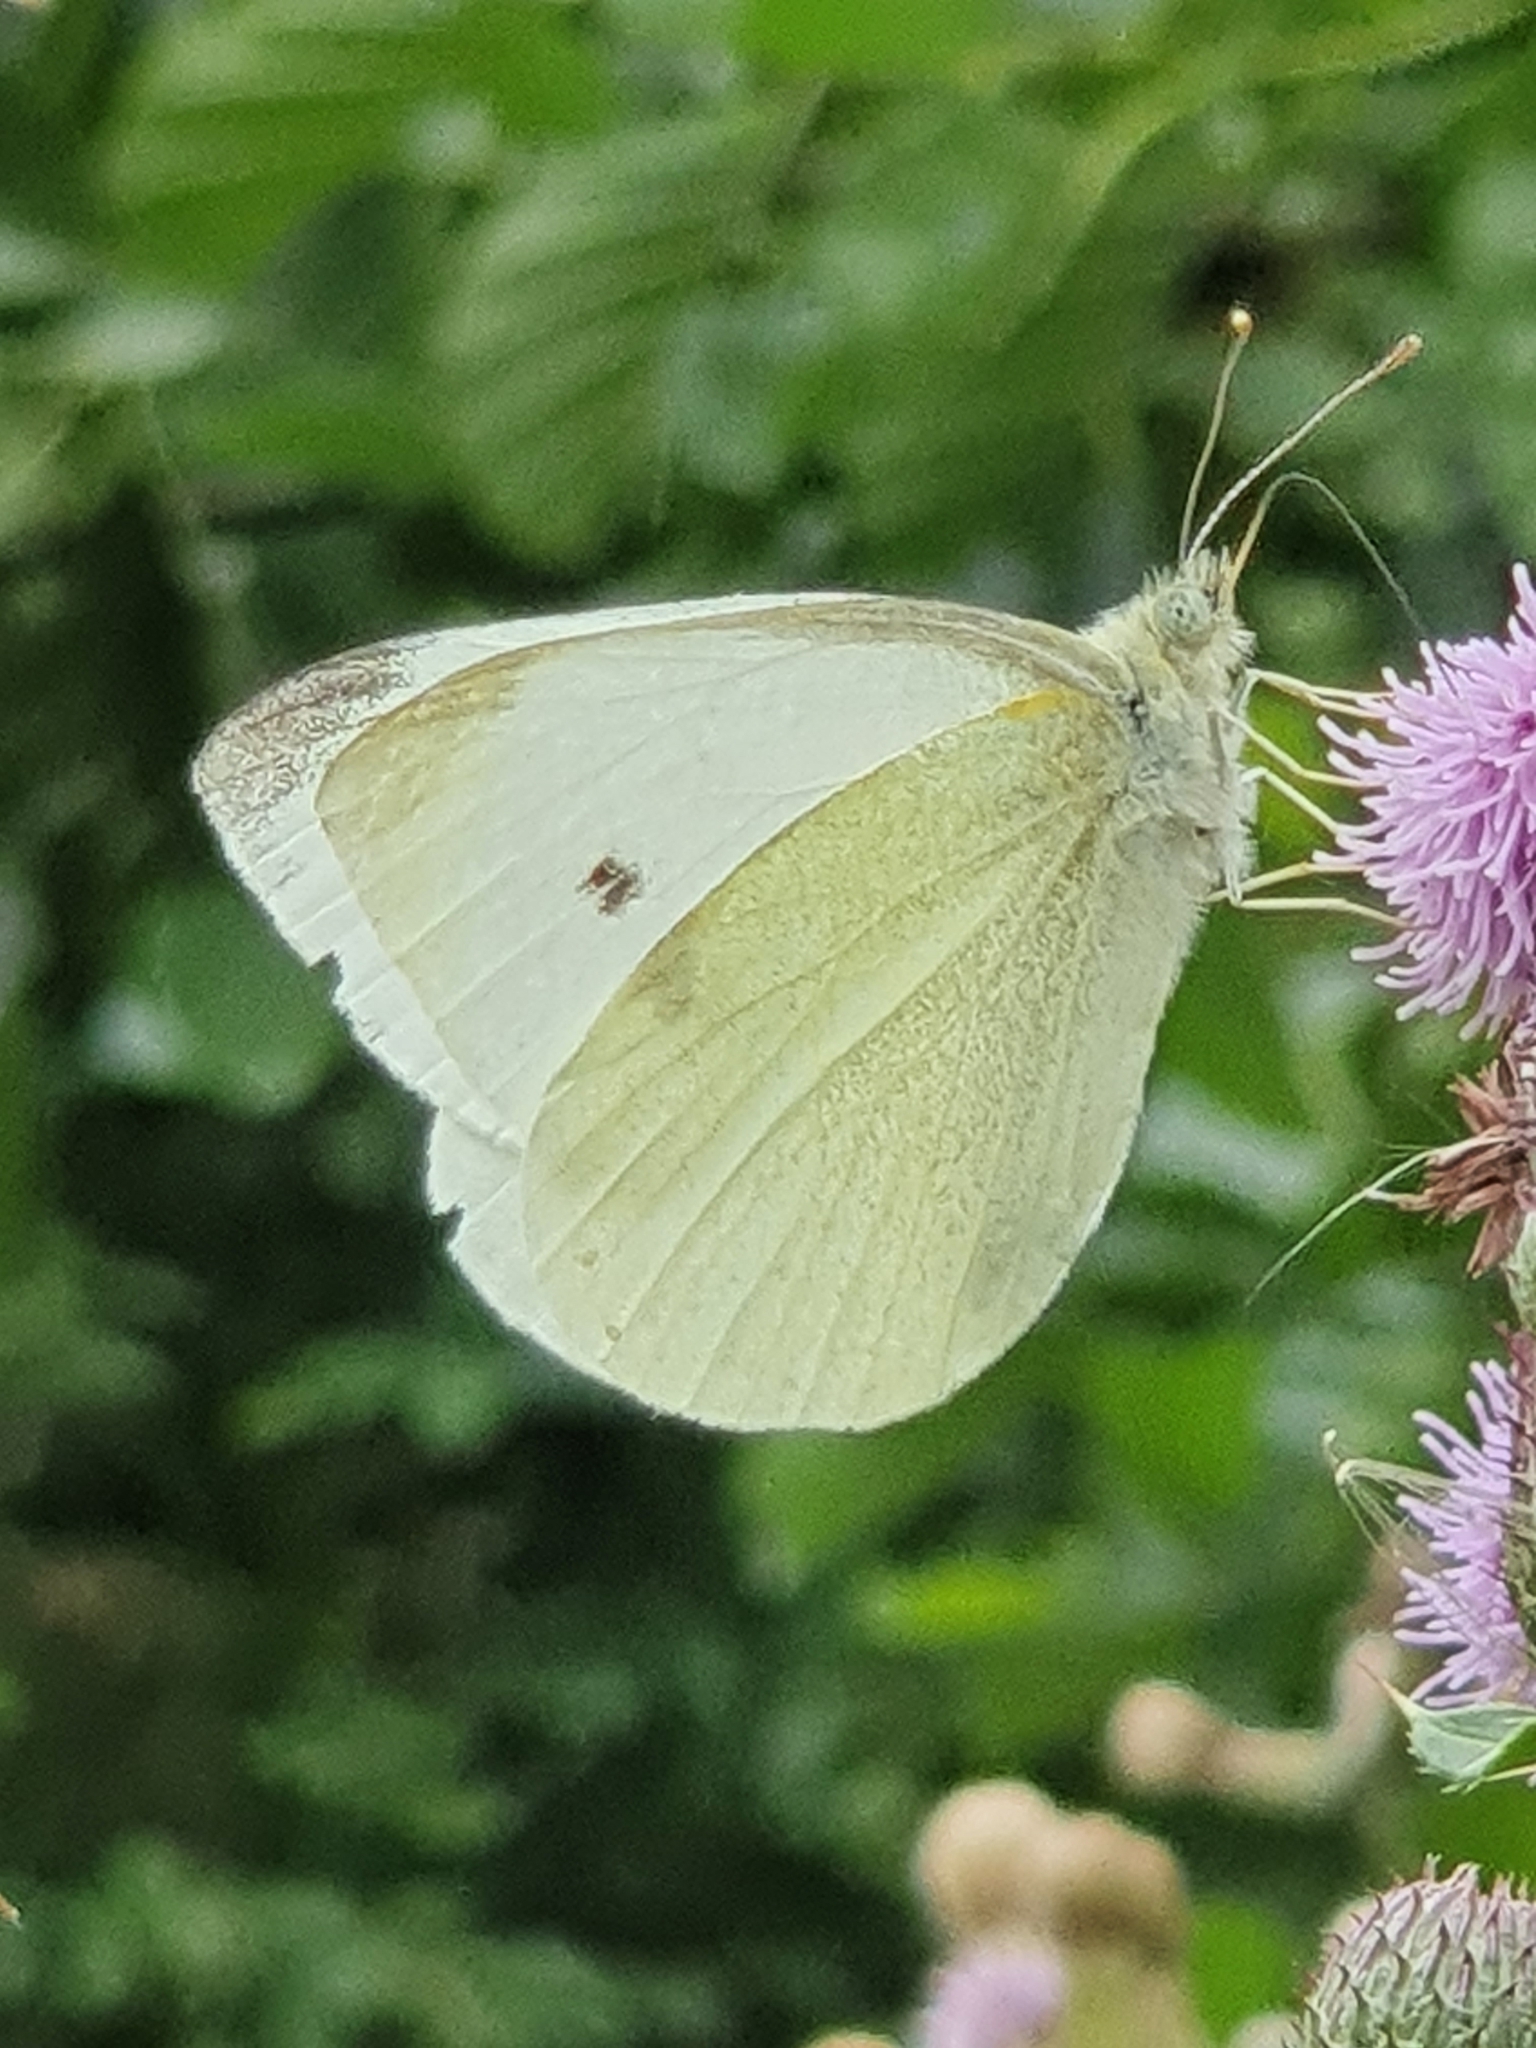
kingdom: Animalia
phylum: Arthropoda
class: Insecta
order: Lepidoptera
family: Pieridae
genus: Pieris
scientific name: Pieris rapae
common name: Small white
